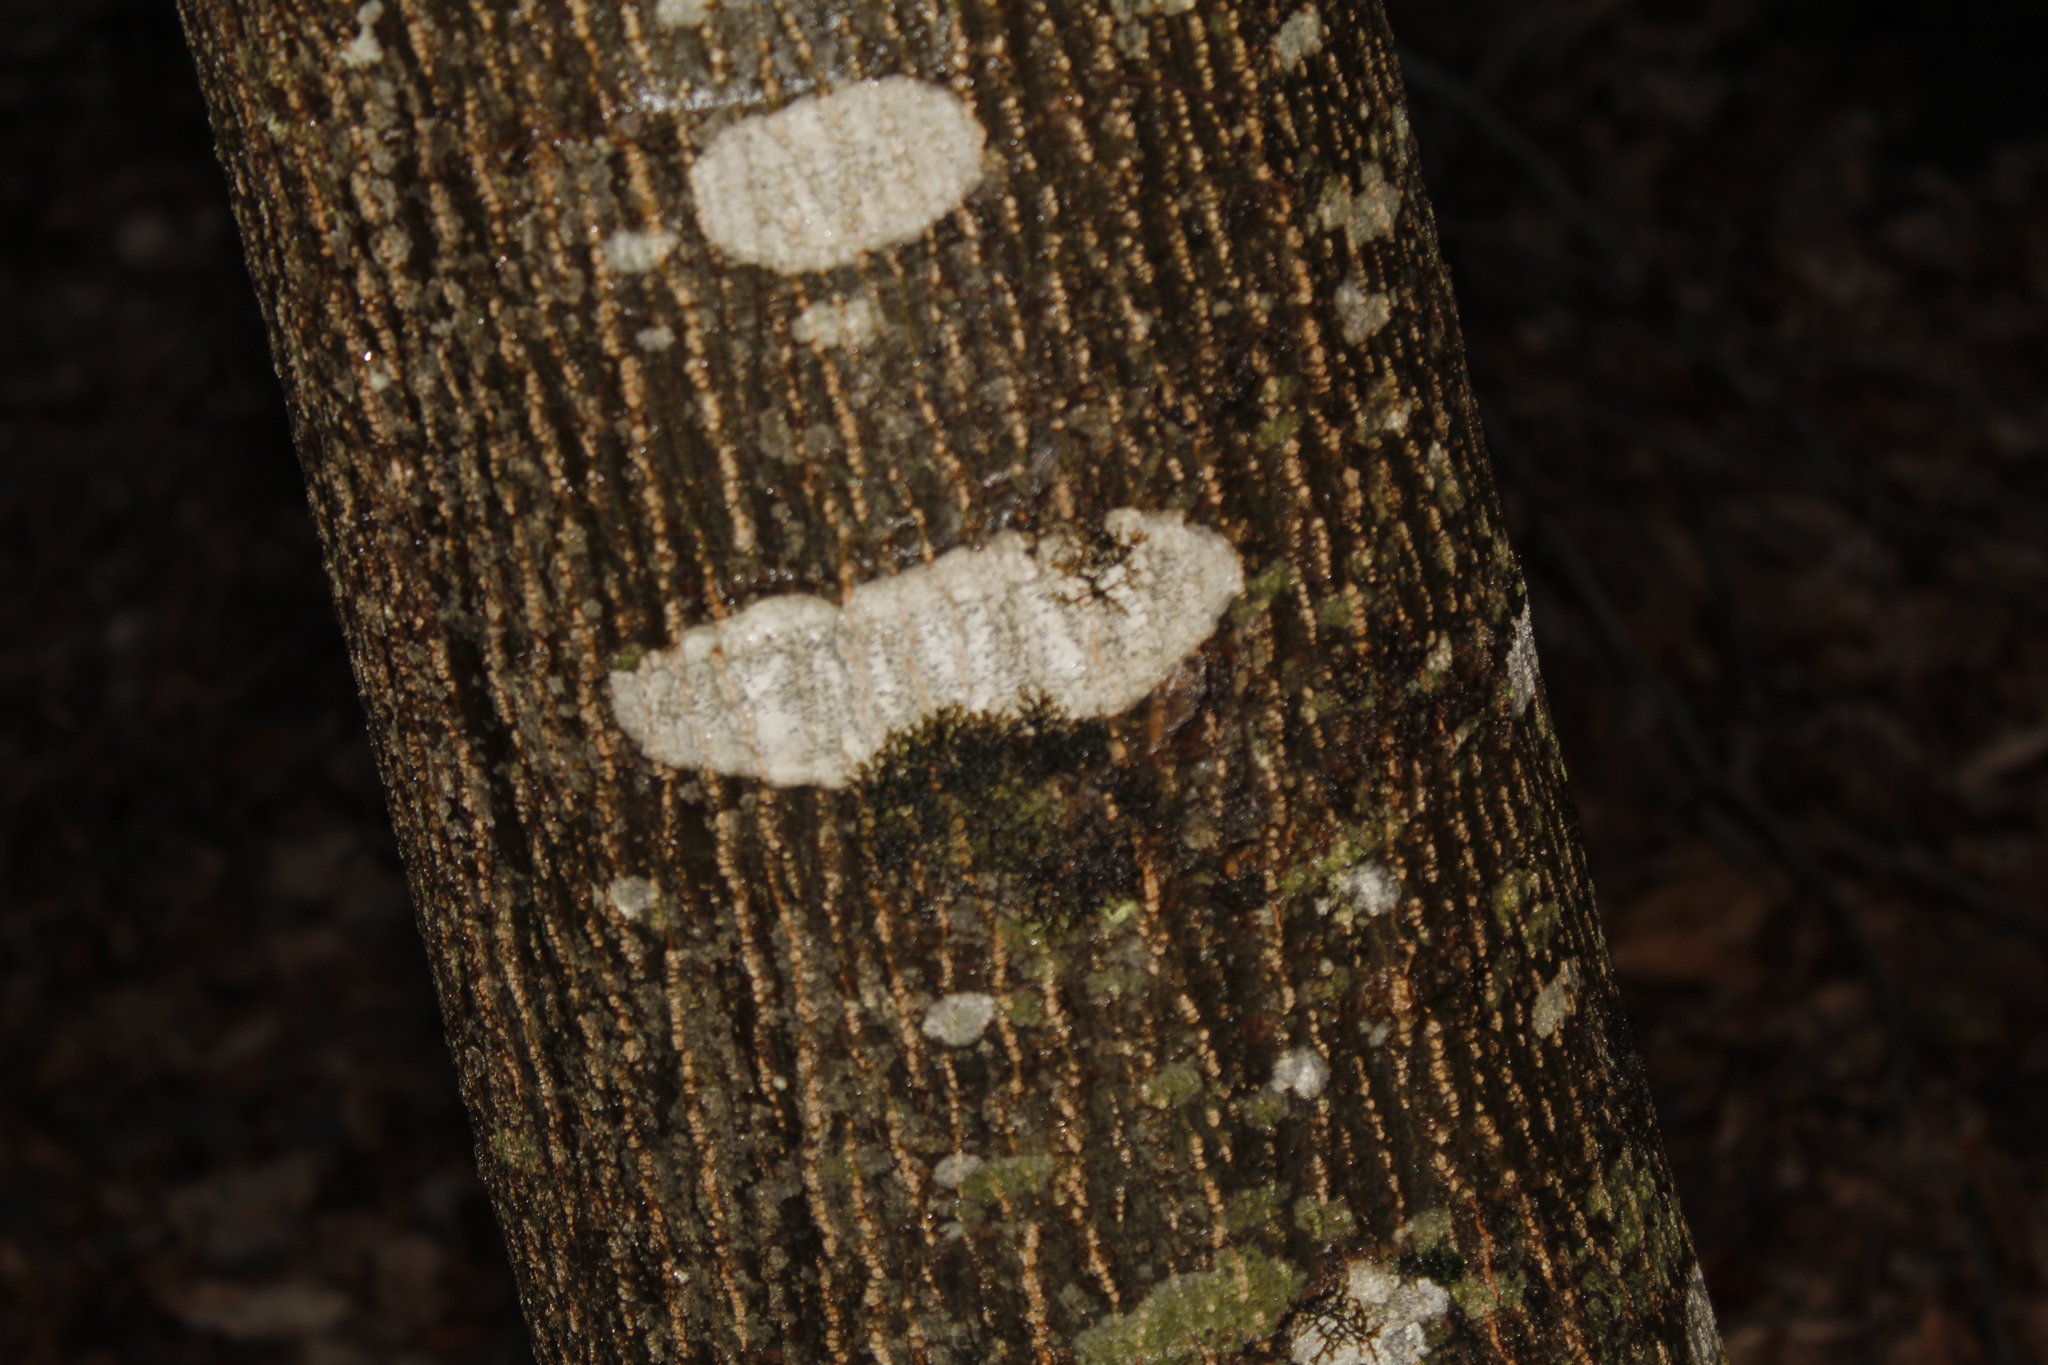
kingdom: Plantae
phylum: Tracheophyta
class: Magnoliopsida
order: Sapindales
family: Sapindaceae
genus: Acer
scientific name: Acer pensylvanicum
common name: Moosewood
